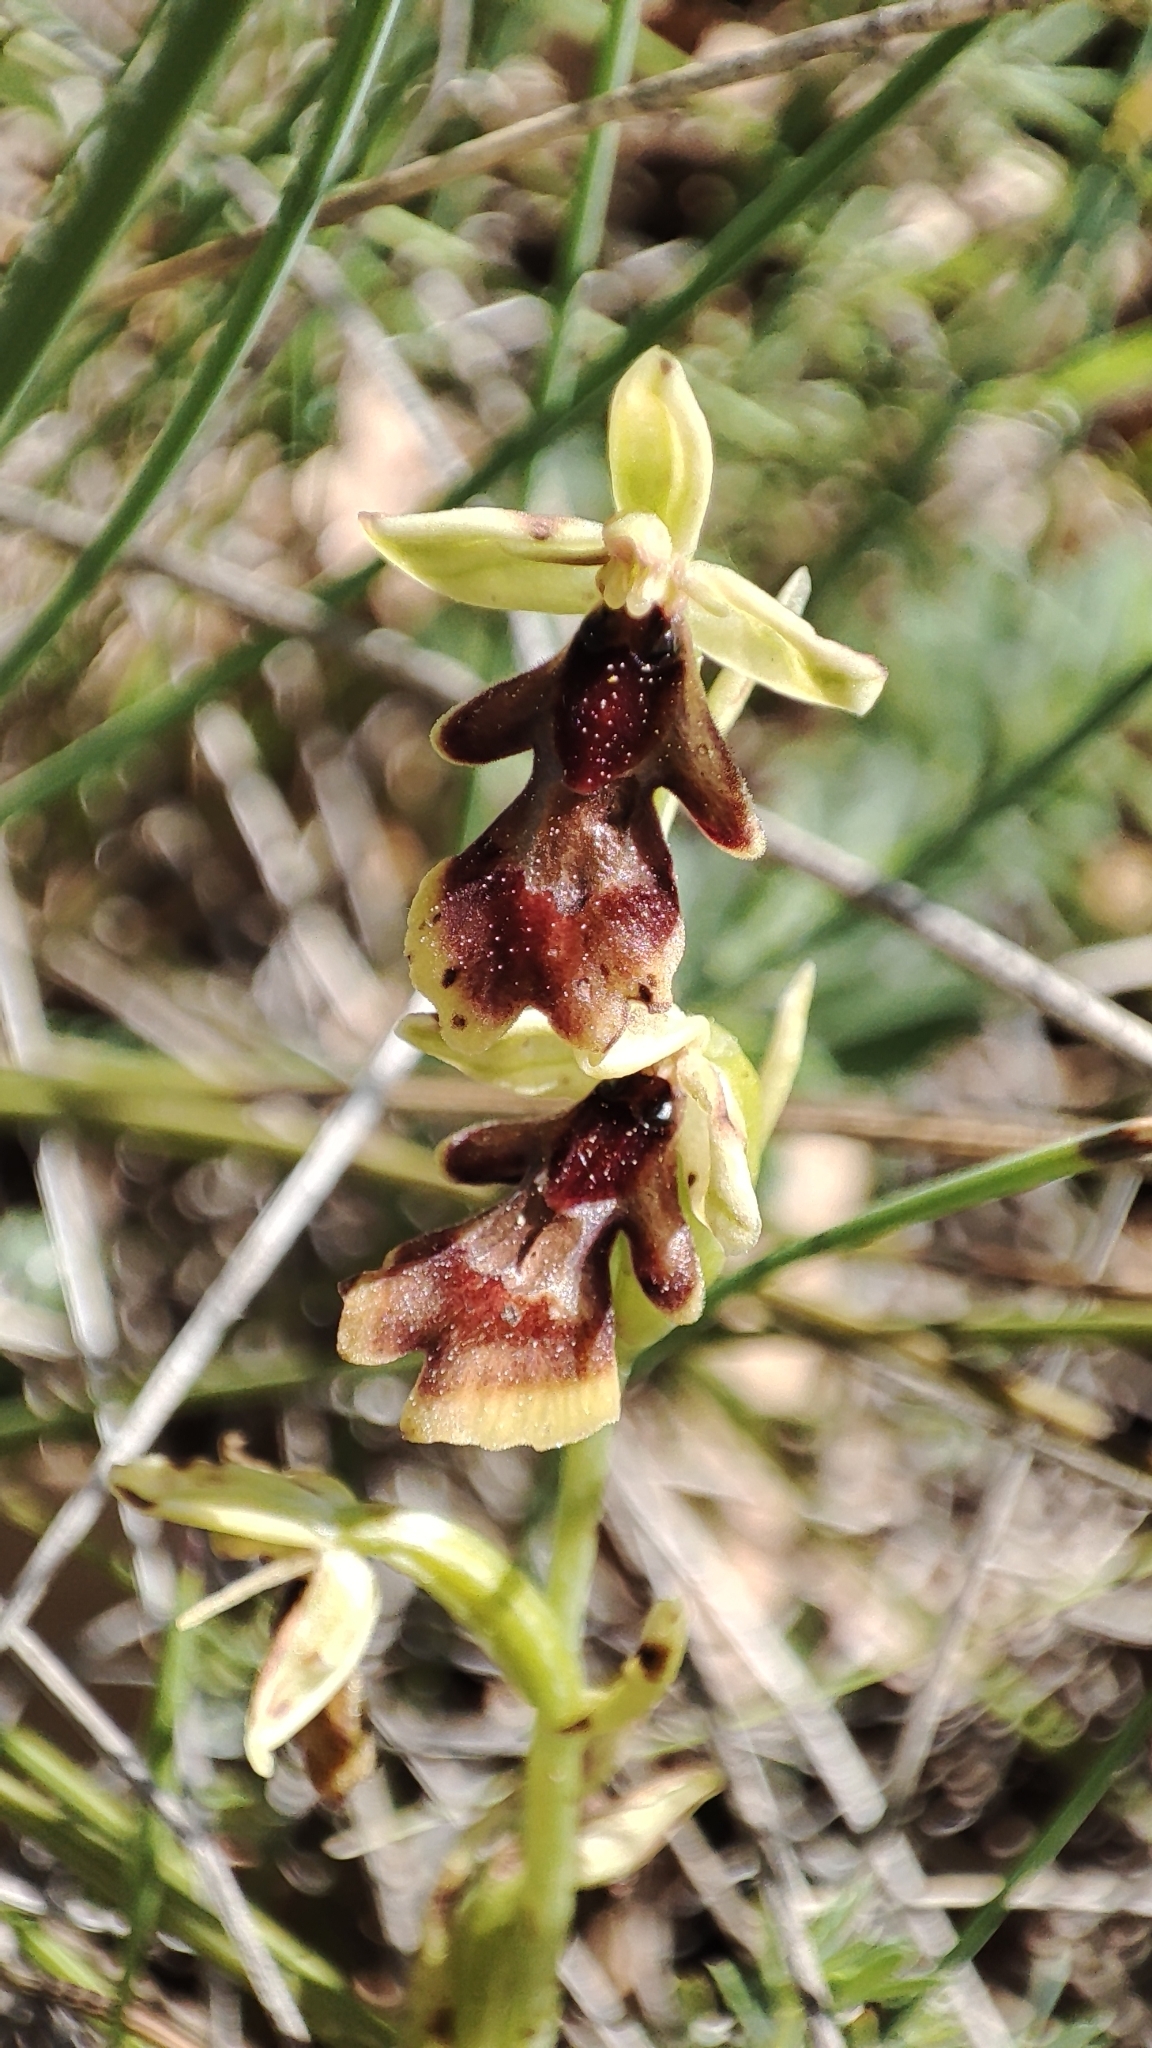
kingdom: Plantae
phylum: Tracheophyta
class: Liliopsida
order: Asparagales
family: Orchidaceae
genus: Ophrys
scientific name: Ophrys insectifera
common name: Fly orchid
